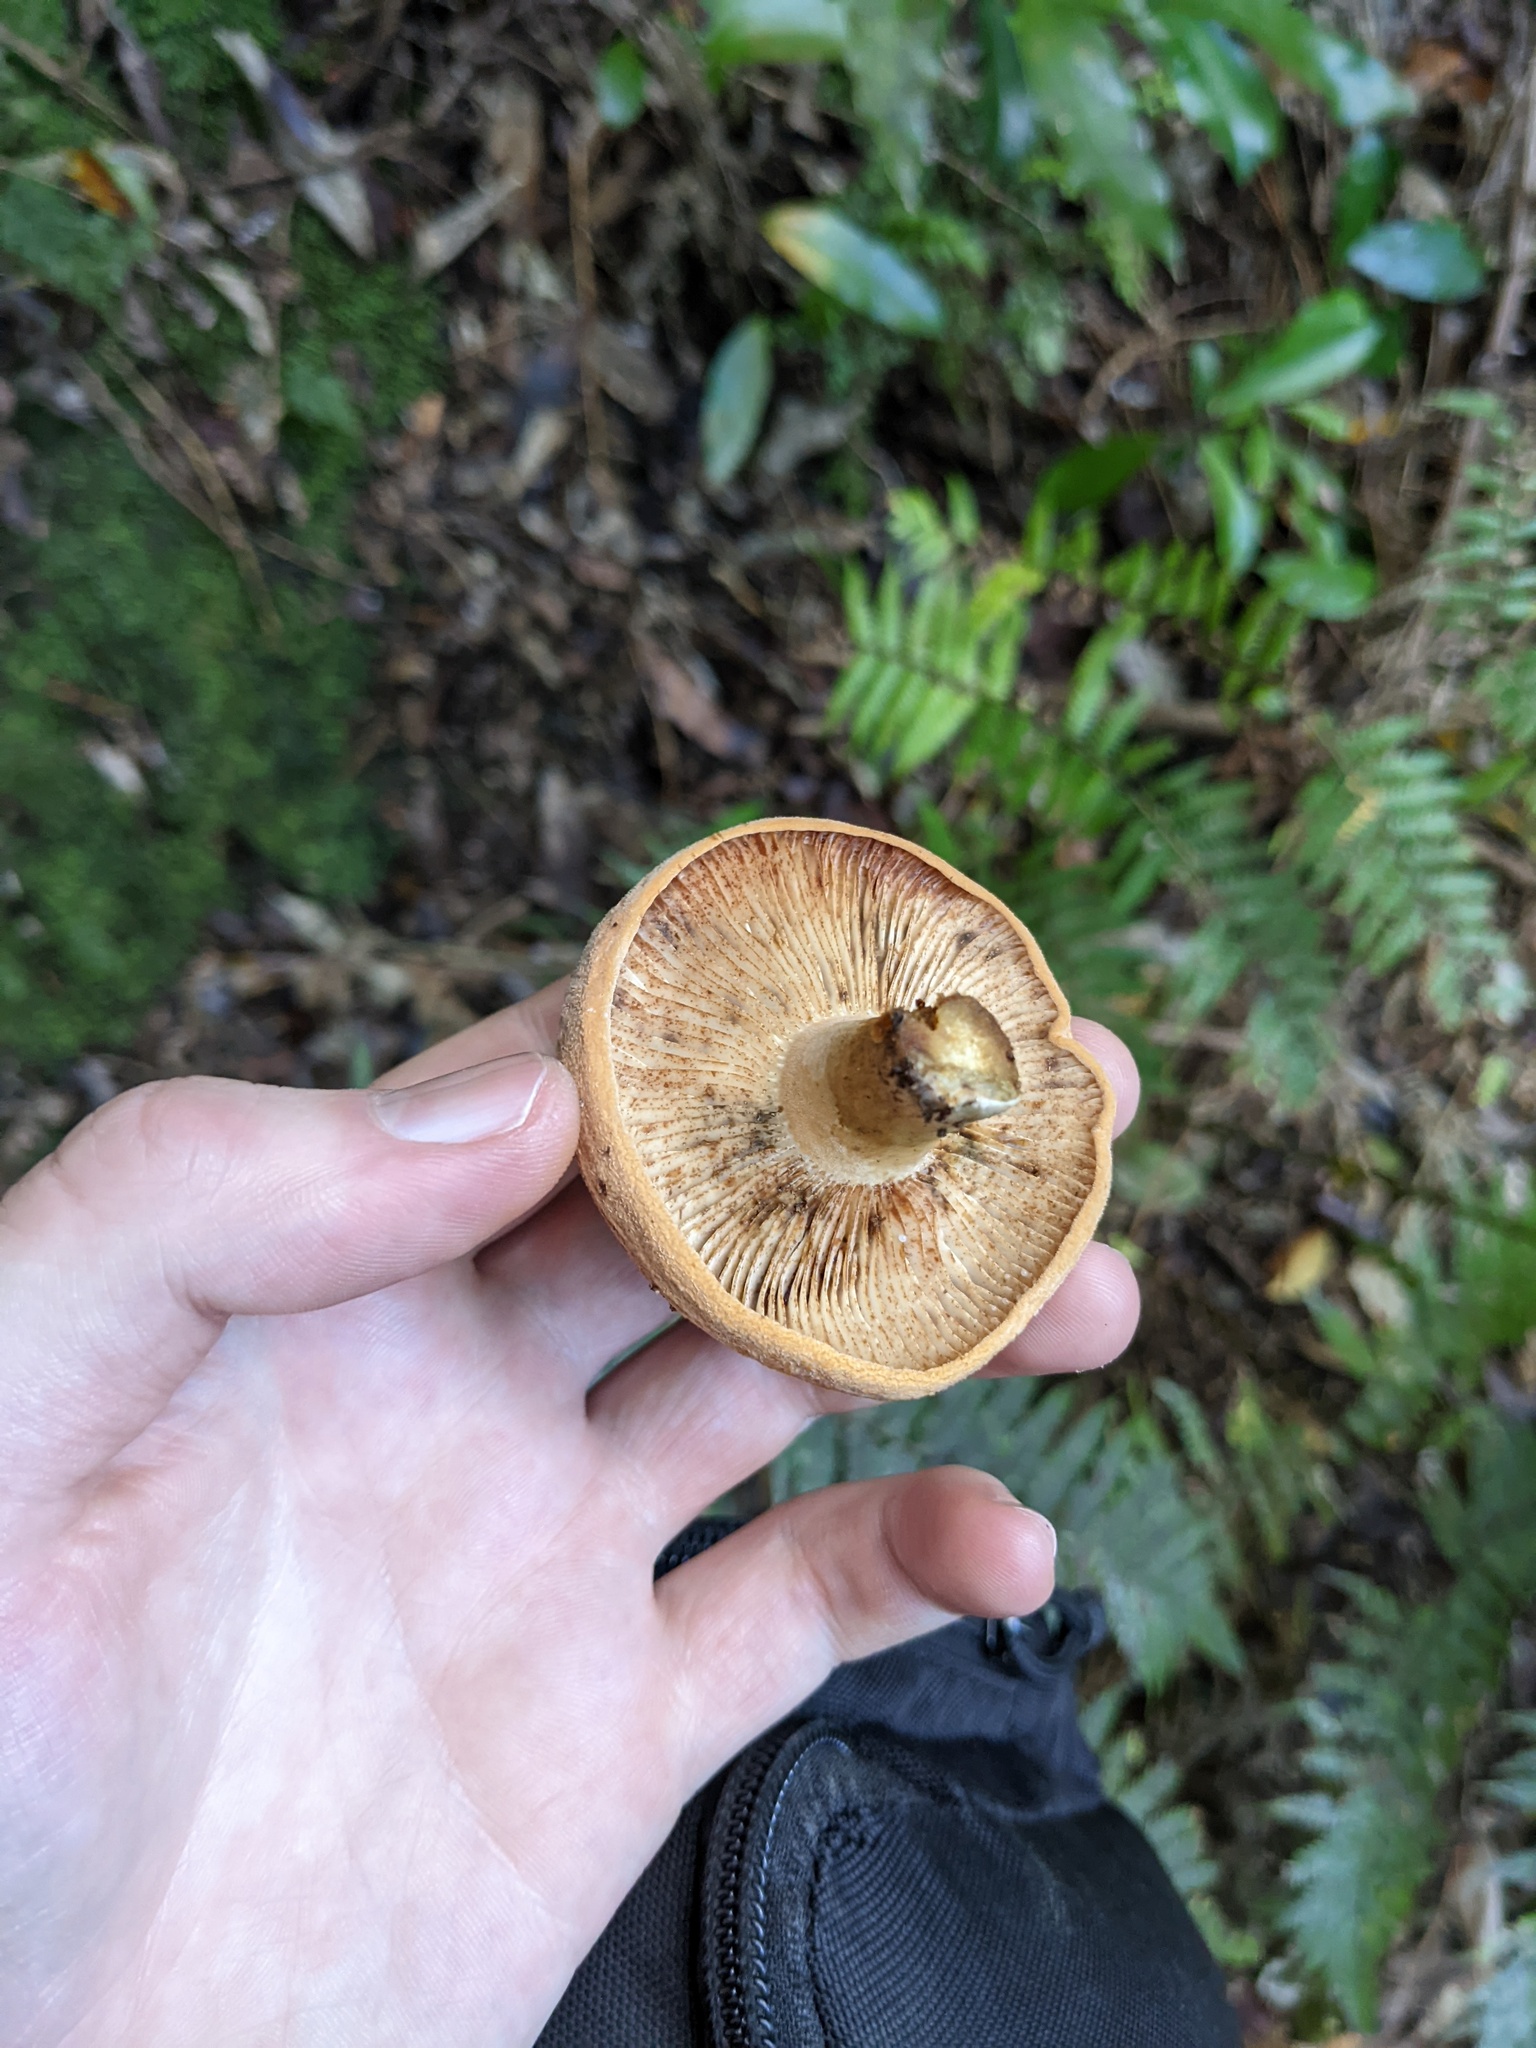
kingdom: Fungi
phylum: Basidiomycota
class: Agaricomycetes
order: Russulales
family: Russulaceae
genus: Lactifluus
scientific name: Lactifluus clarkeae
